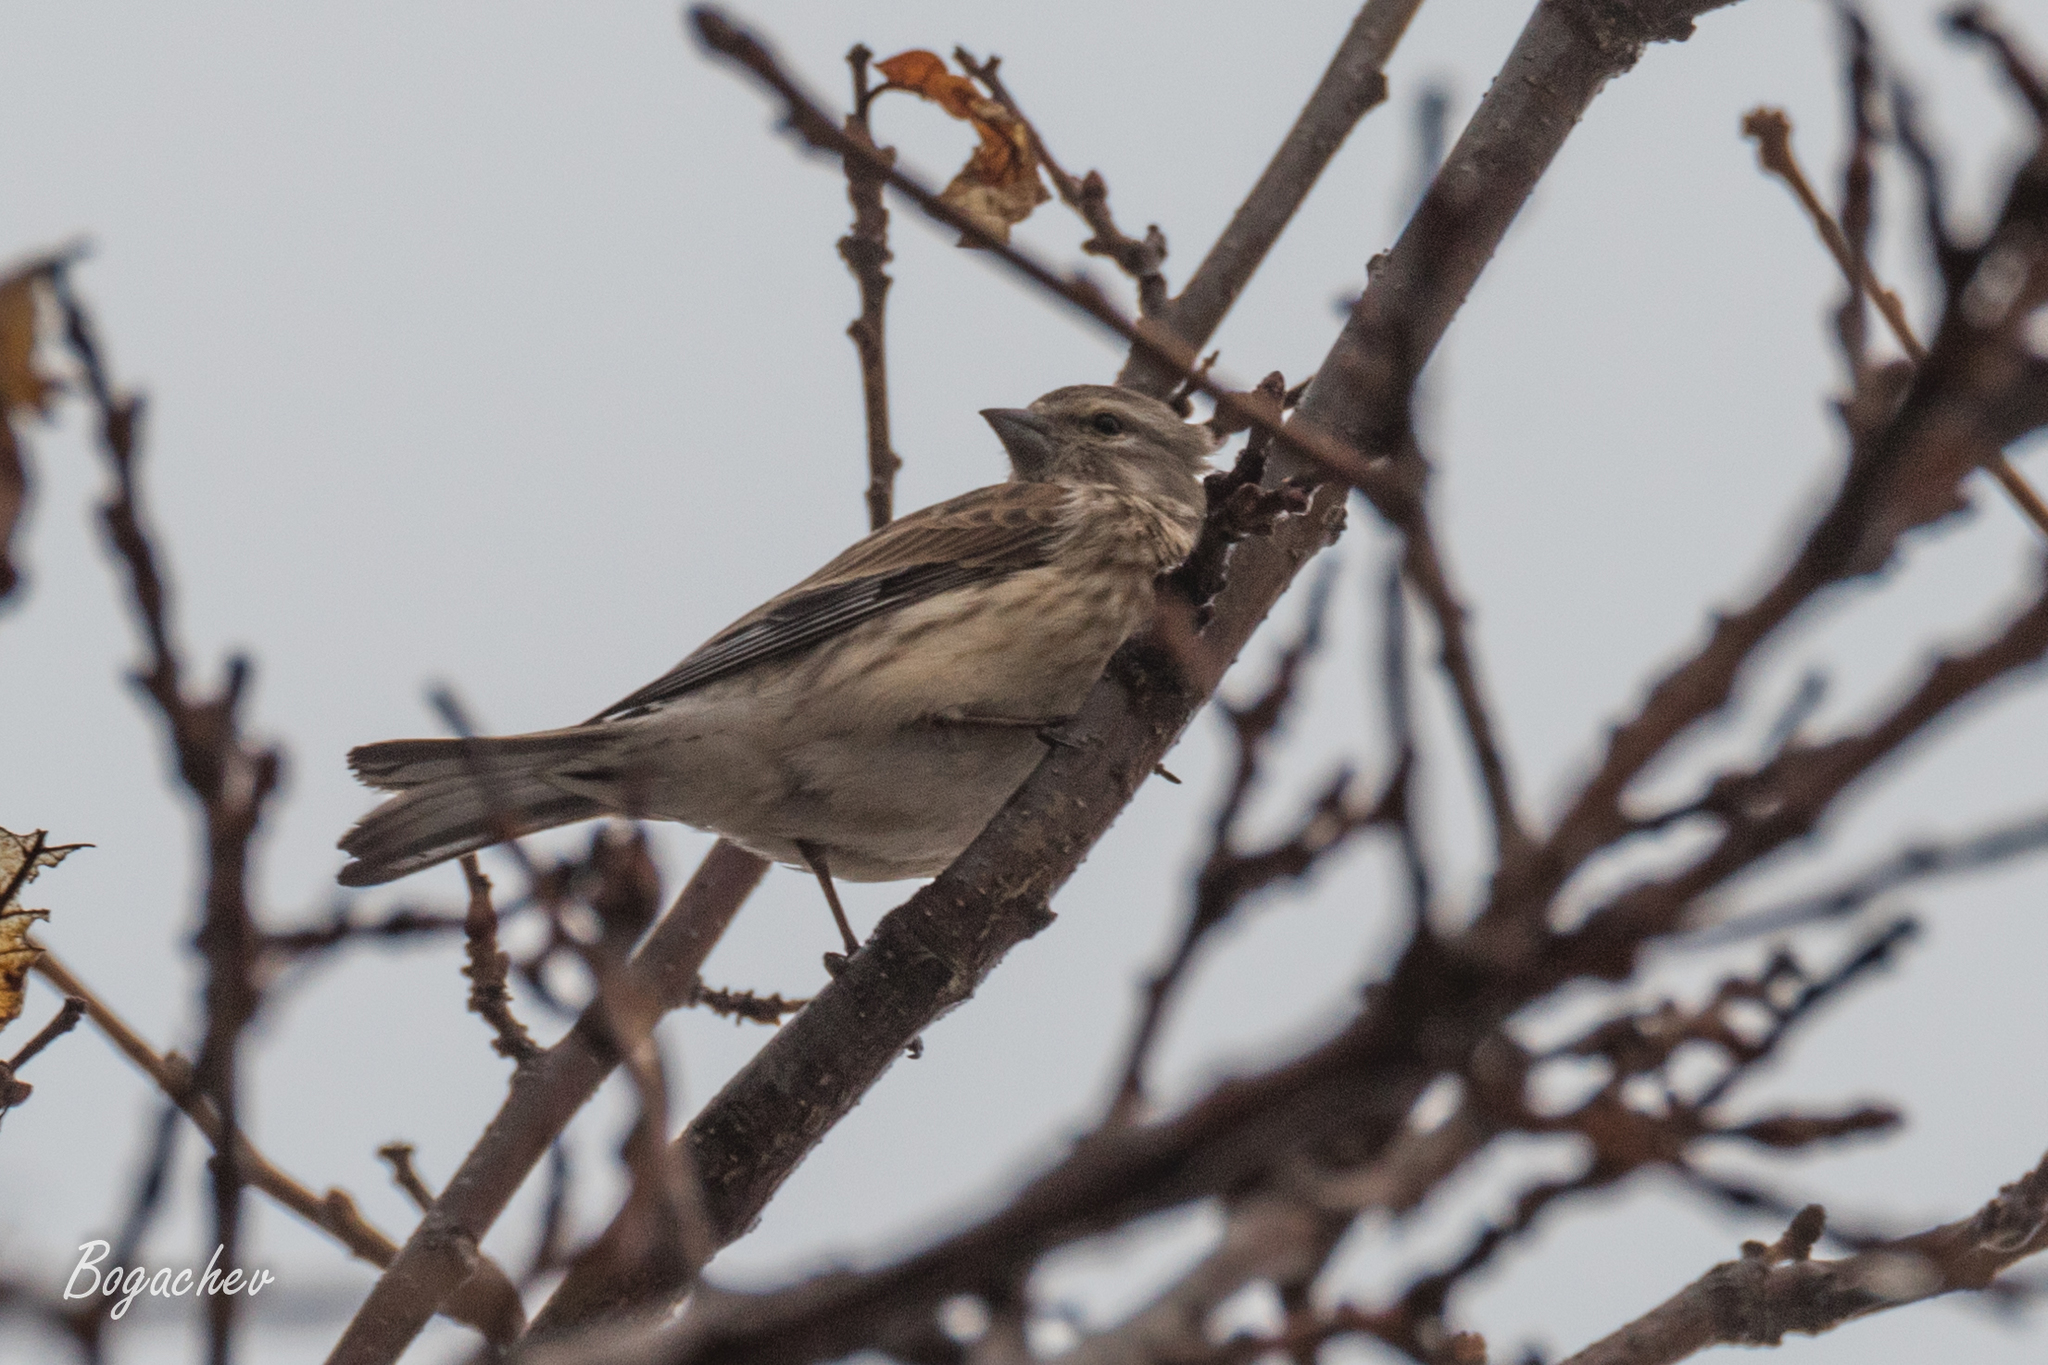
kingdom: Animalia
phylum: Chordata
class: Aves
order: Passeriformes
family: Fringillidae
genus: Linaria
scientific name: Linaria cannabina
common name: Common linnet
